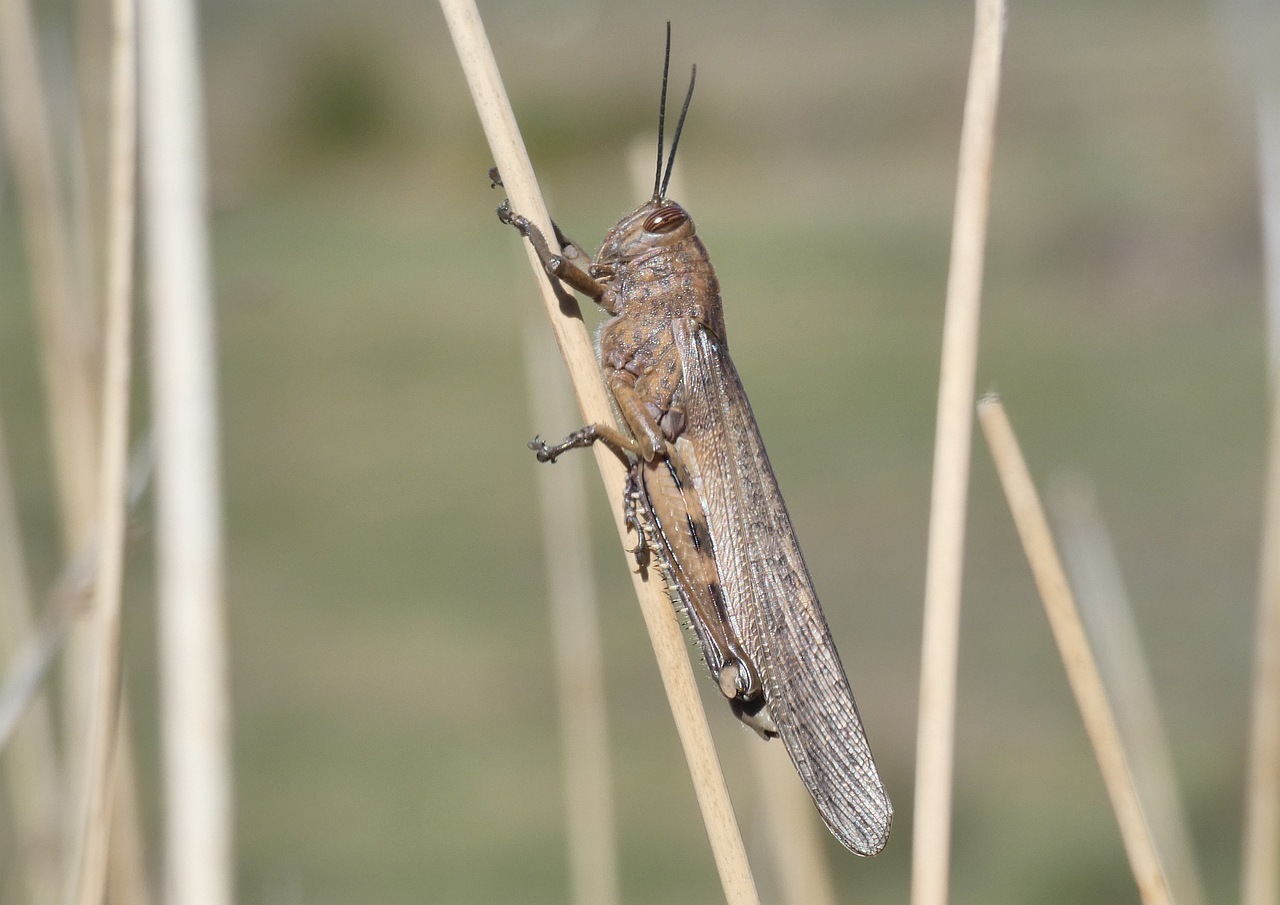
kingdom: Animalia
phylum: Arthropoda
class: Insecta
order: Orthoptera
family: Acrididae
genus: Anacridium
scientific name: Anacridium aegyptium
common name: Egyptian grasshopper
